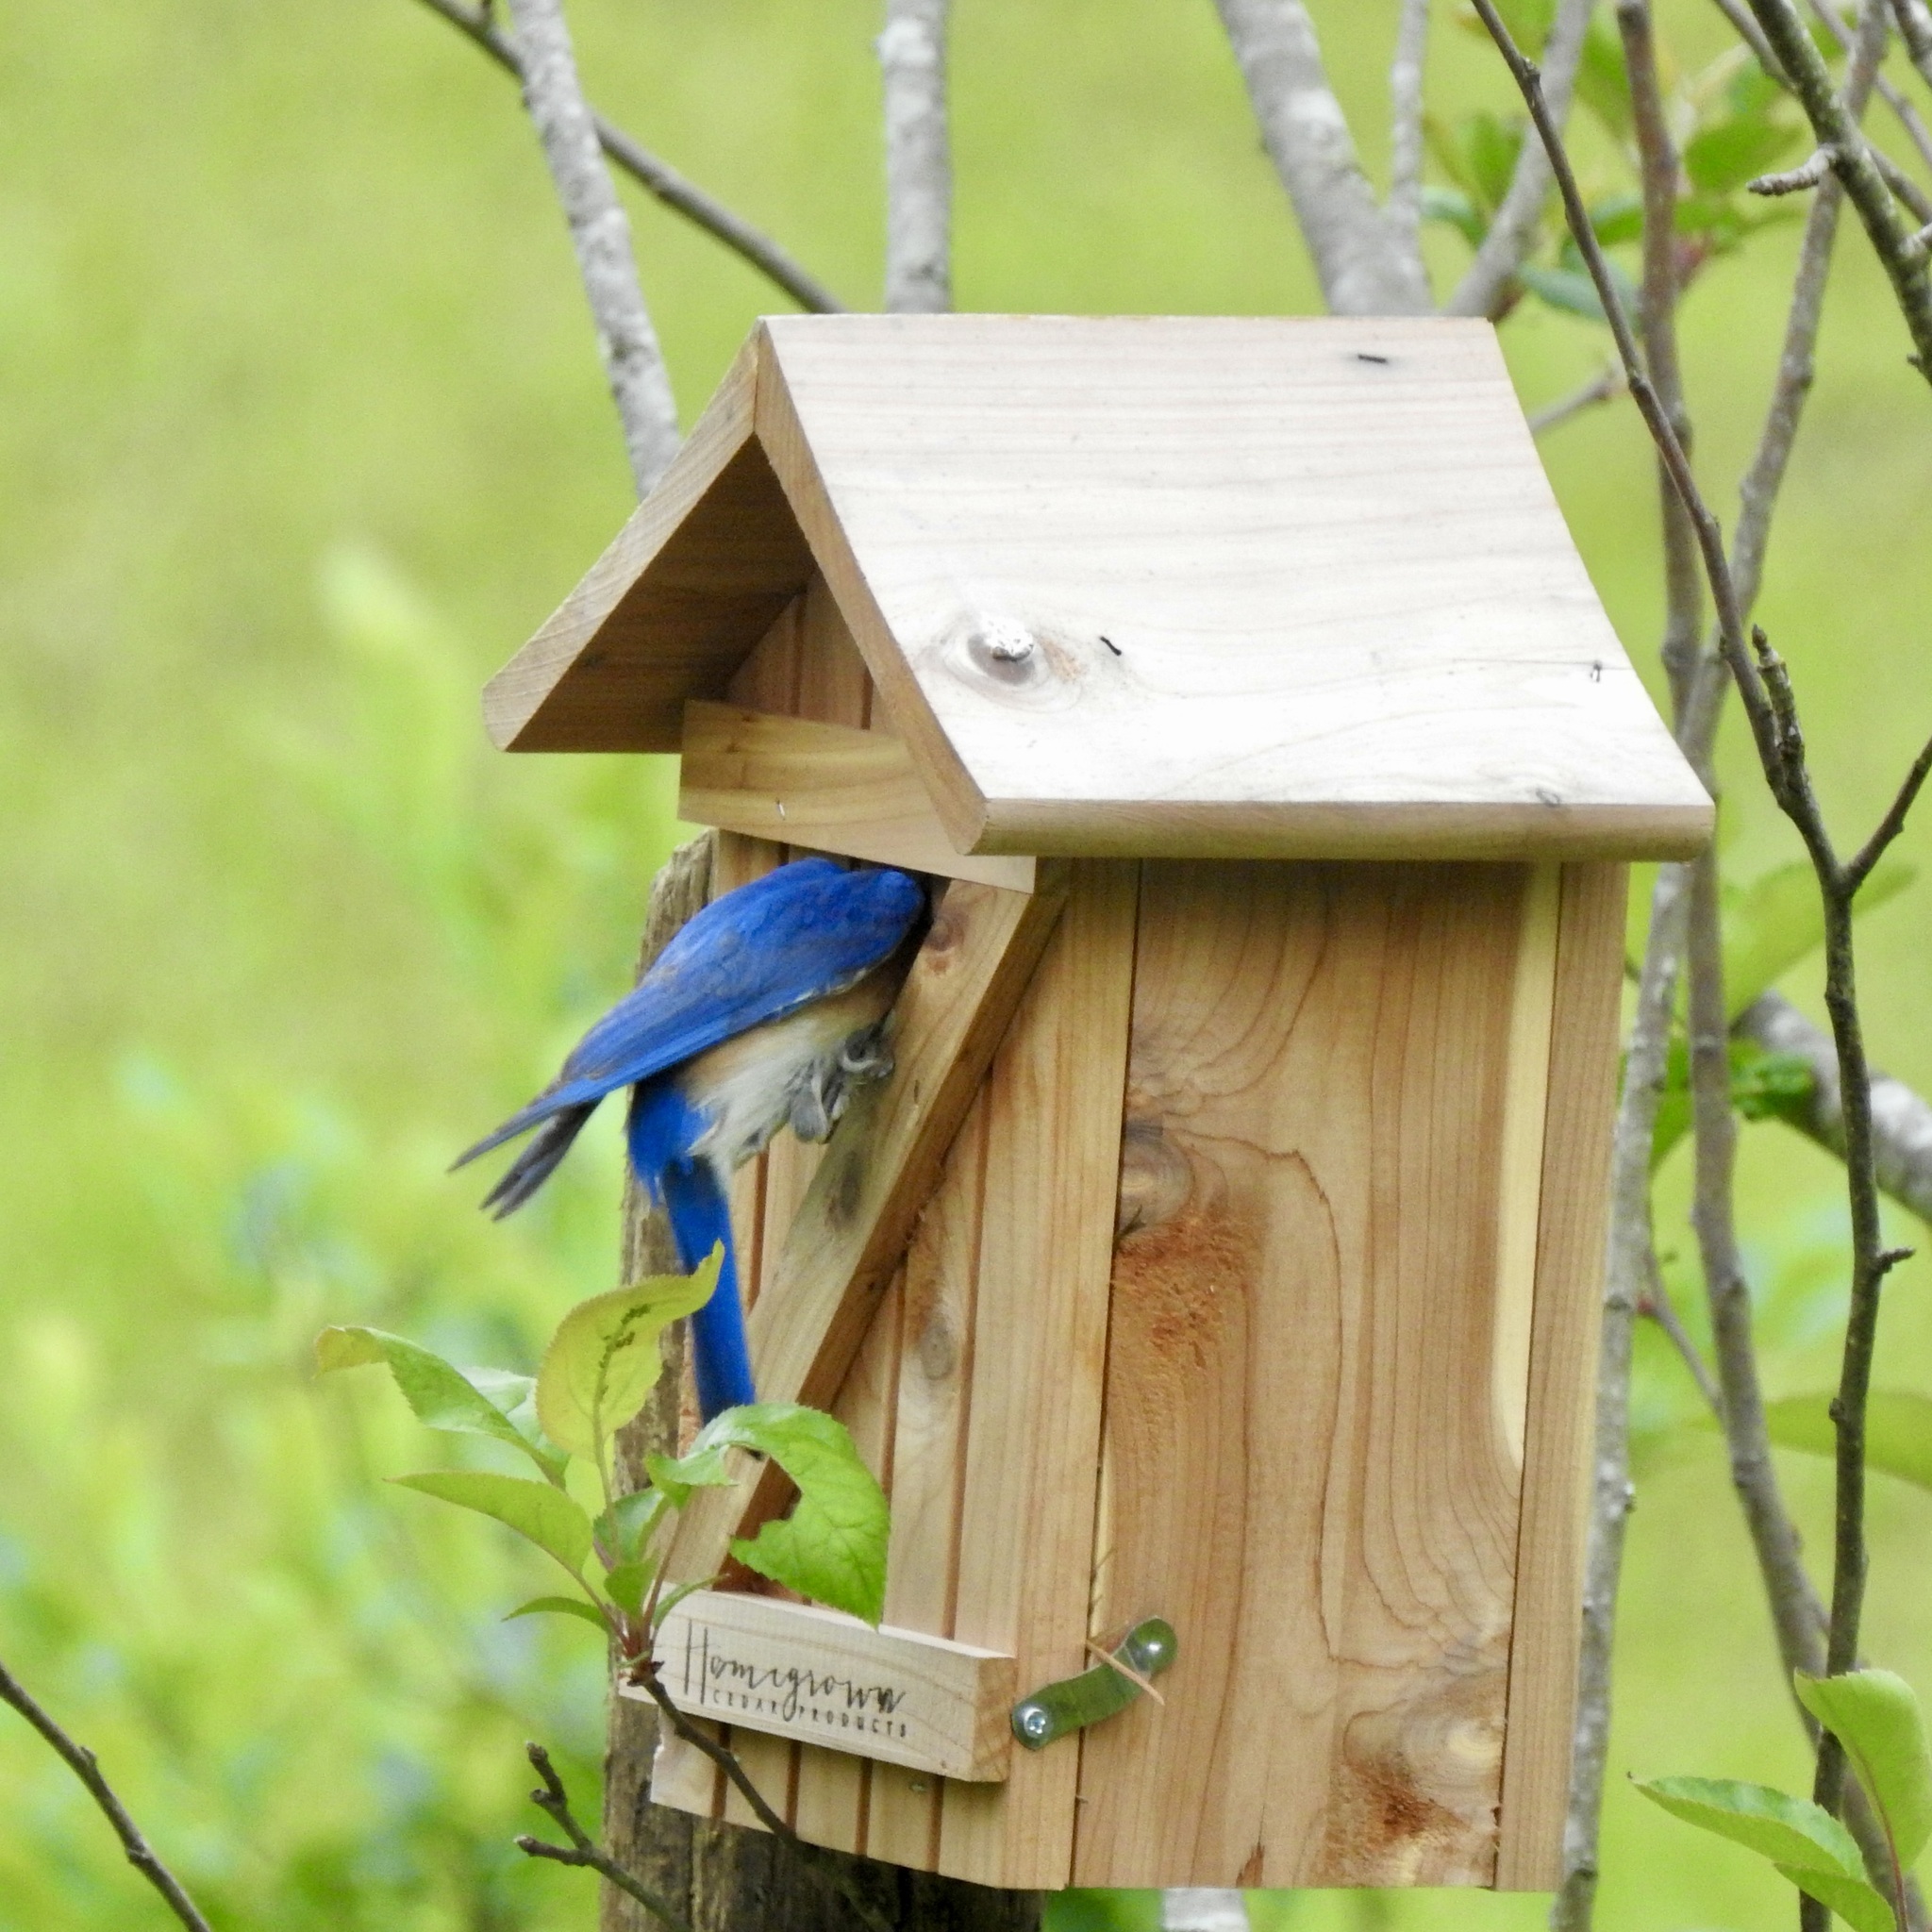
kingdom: Animalia
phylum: Chordata
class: Aves
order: Passeriformes
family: Turdidae
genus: Sialia
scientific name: Sialia sialis
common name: Eastern bluebird
